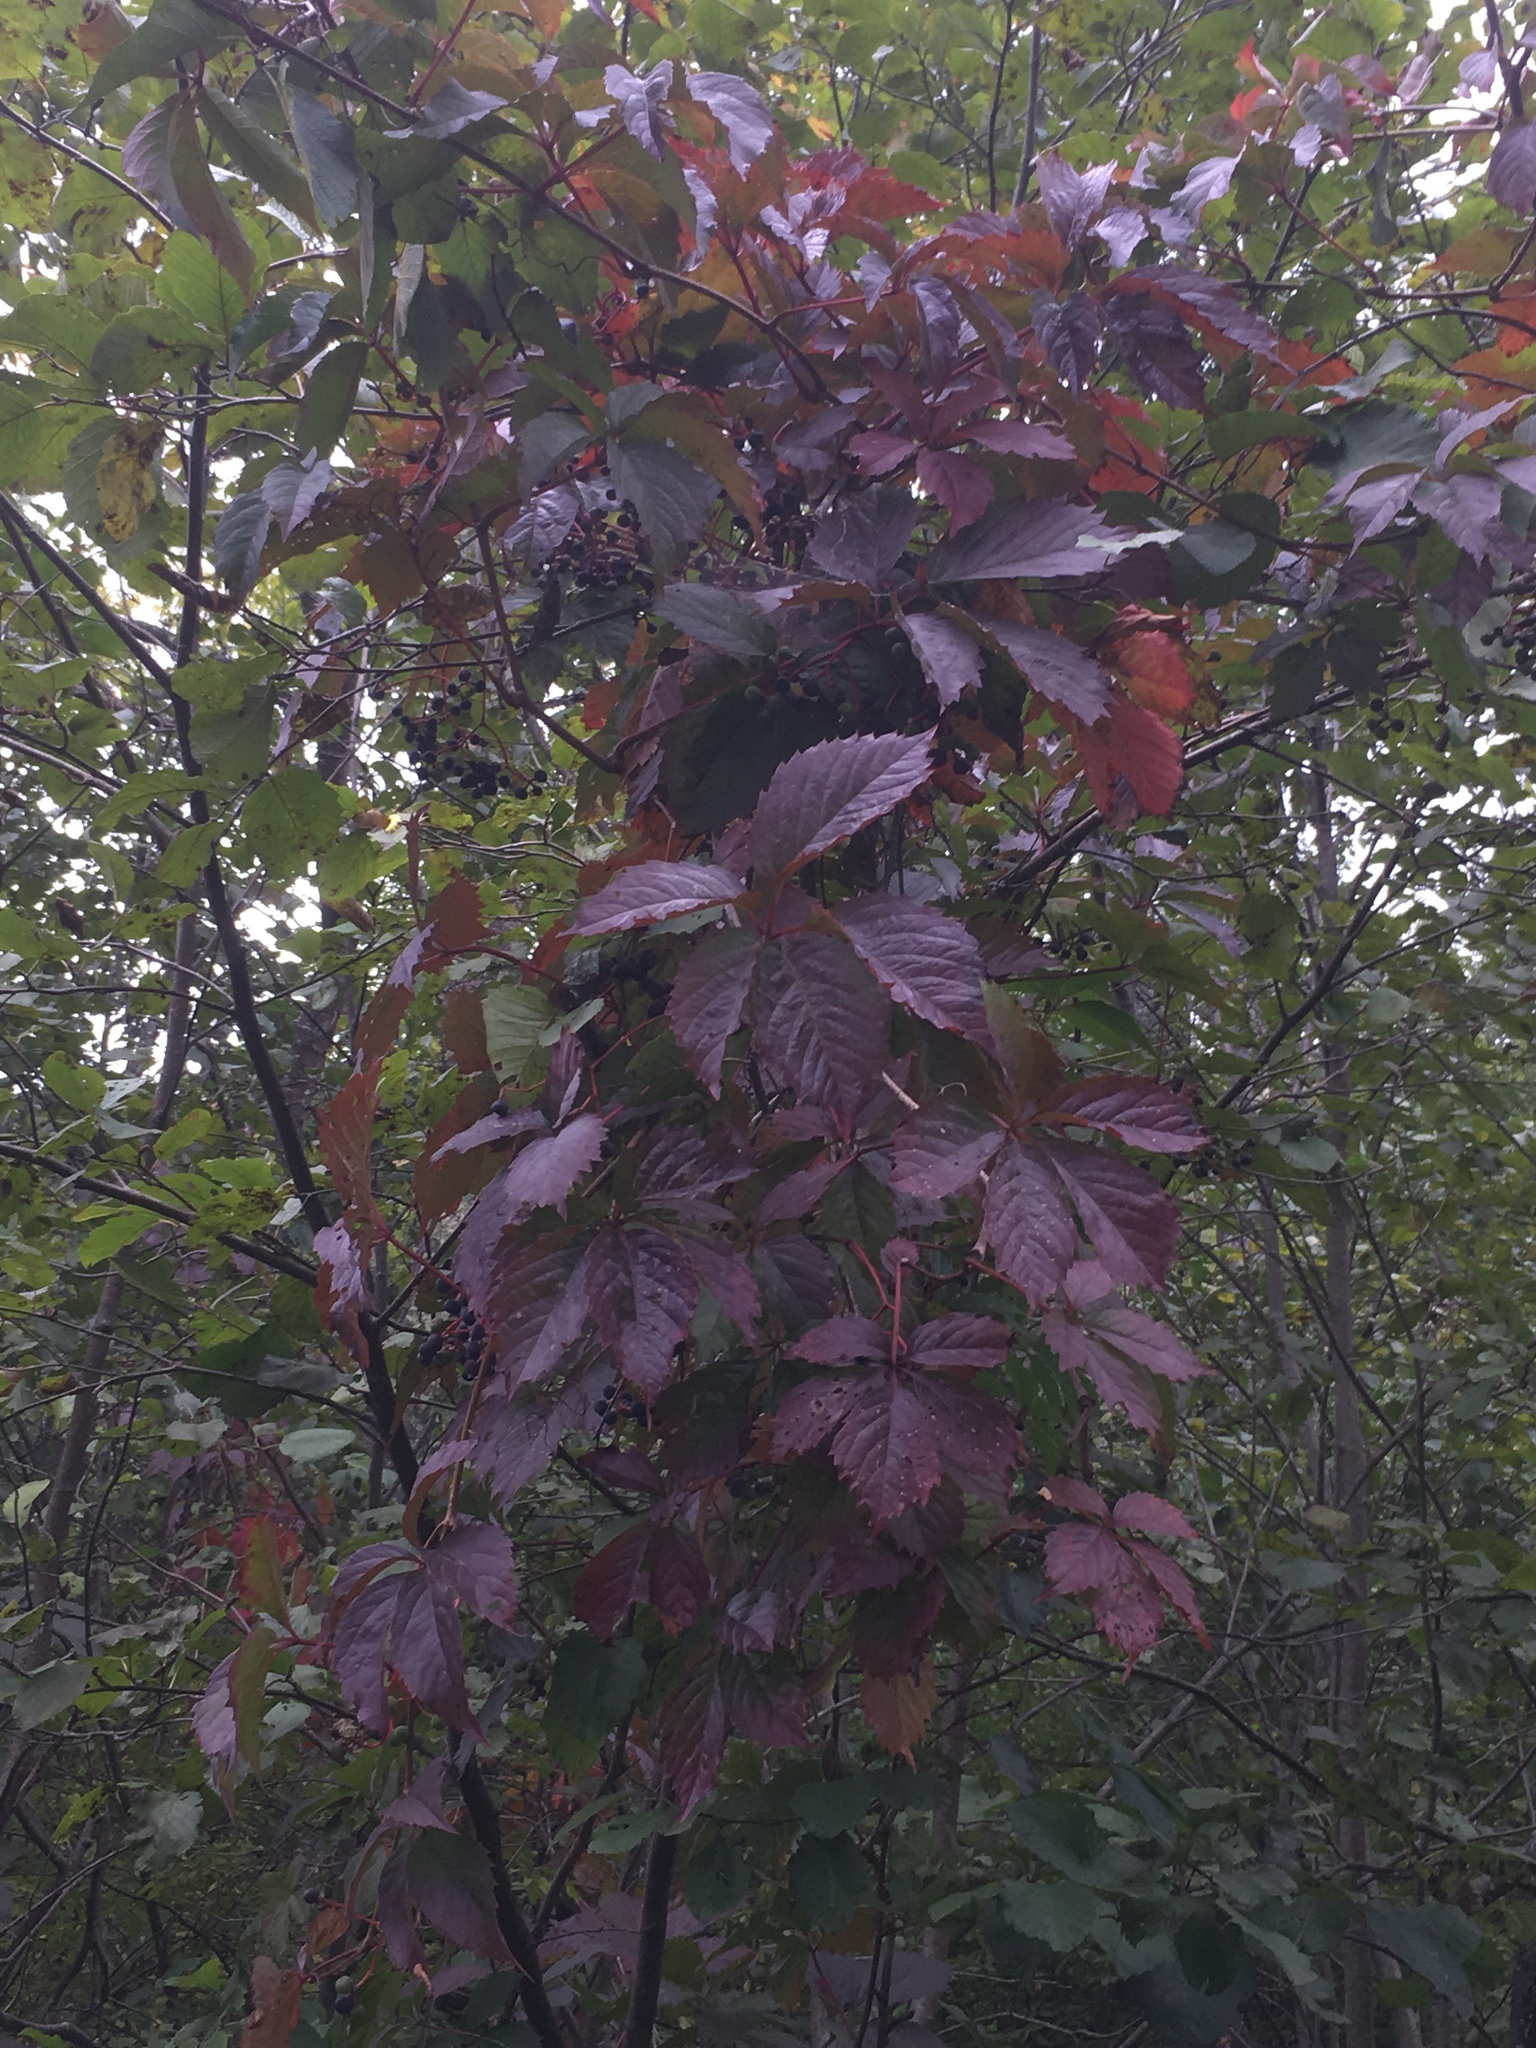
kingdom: Plantae
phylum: Tracheophyta
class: Magnoliopsida
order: Vitales
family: Vitaceae
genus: Parthenocissus
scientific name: Parthenocissus inserta
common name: False virginia-creeper
